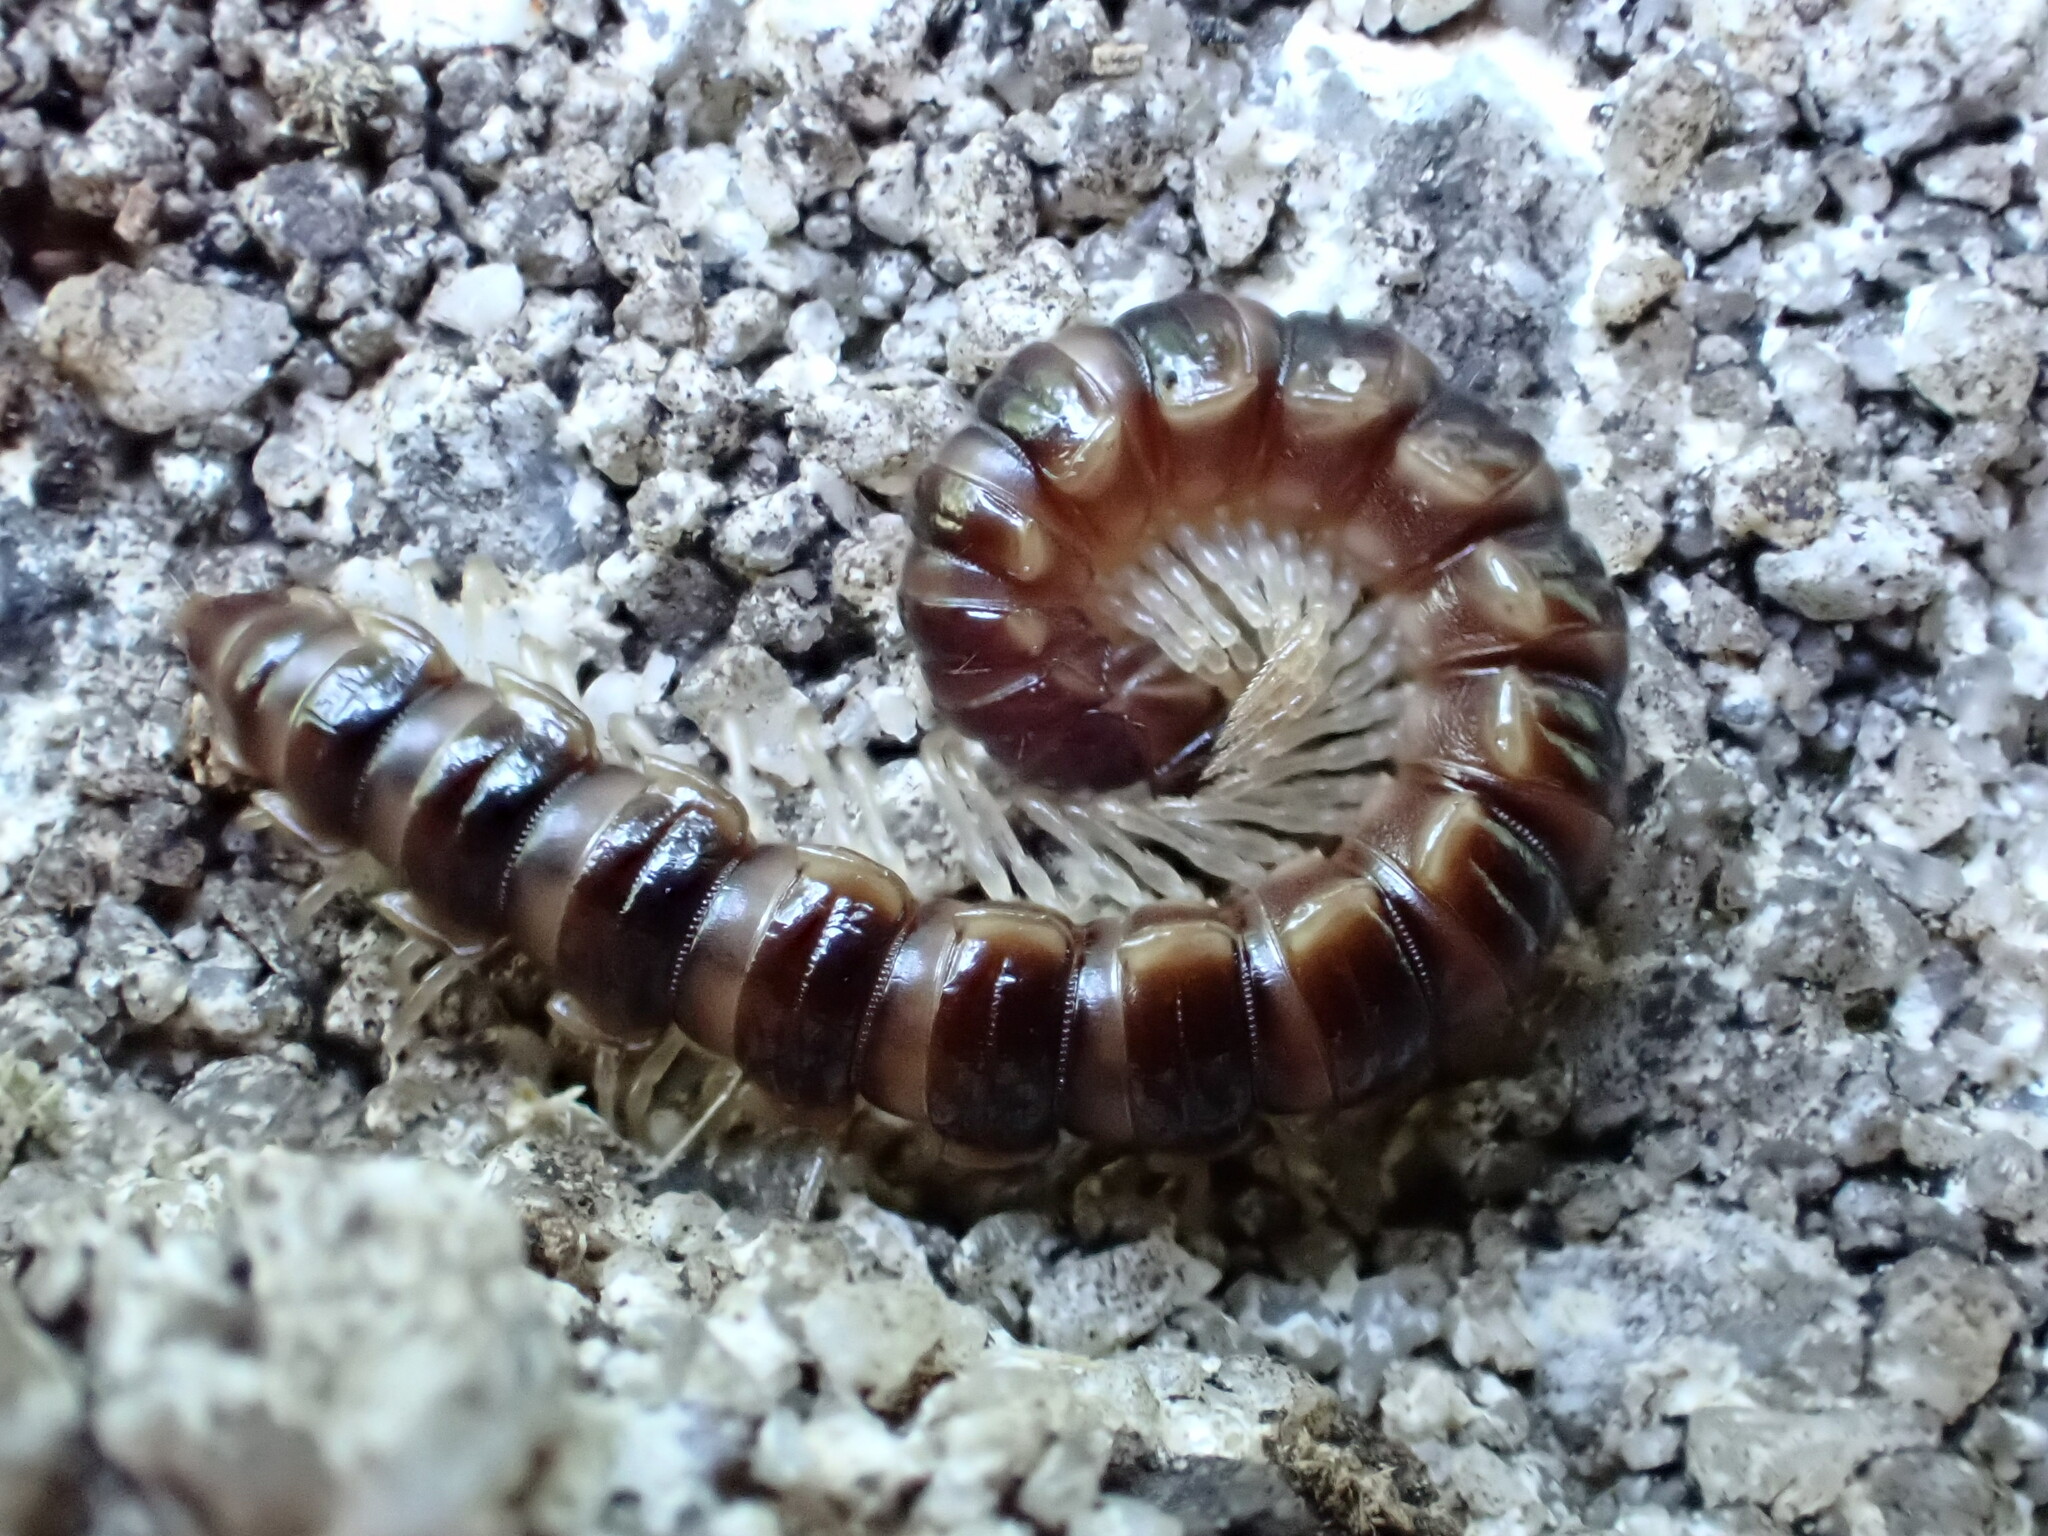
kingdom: Animalia
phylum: Arthropoda
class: Diplopoda
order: Polydesmida
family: Paradoxosomatidae
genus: Oxidus
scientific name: Oxidus gracilis
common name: Greenhouse millipede
